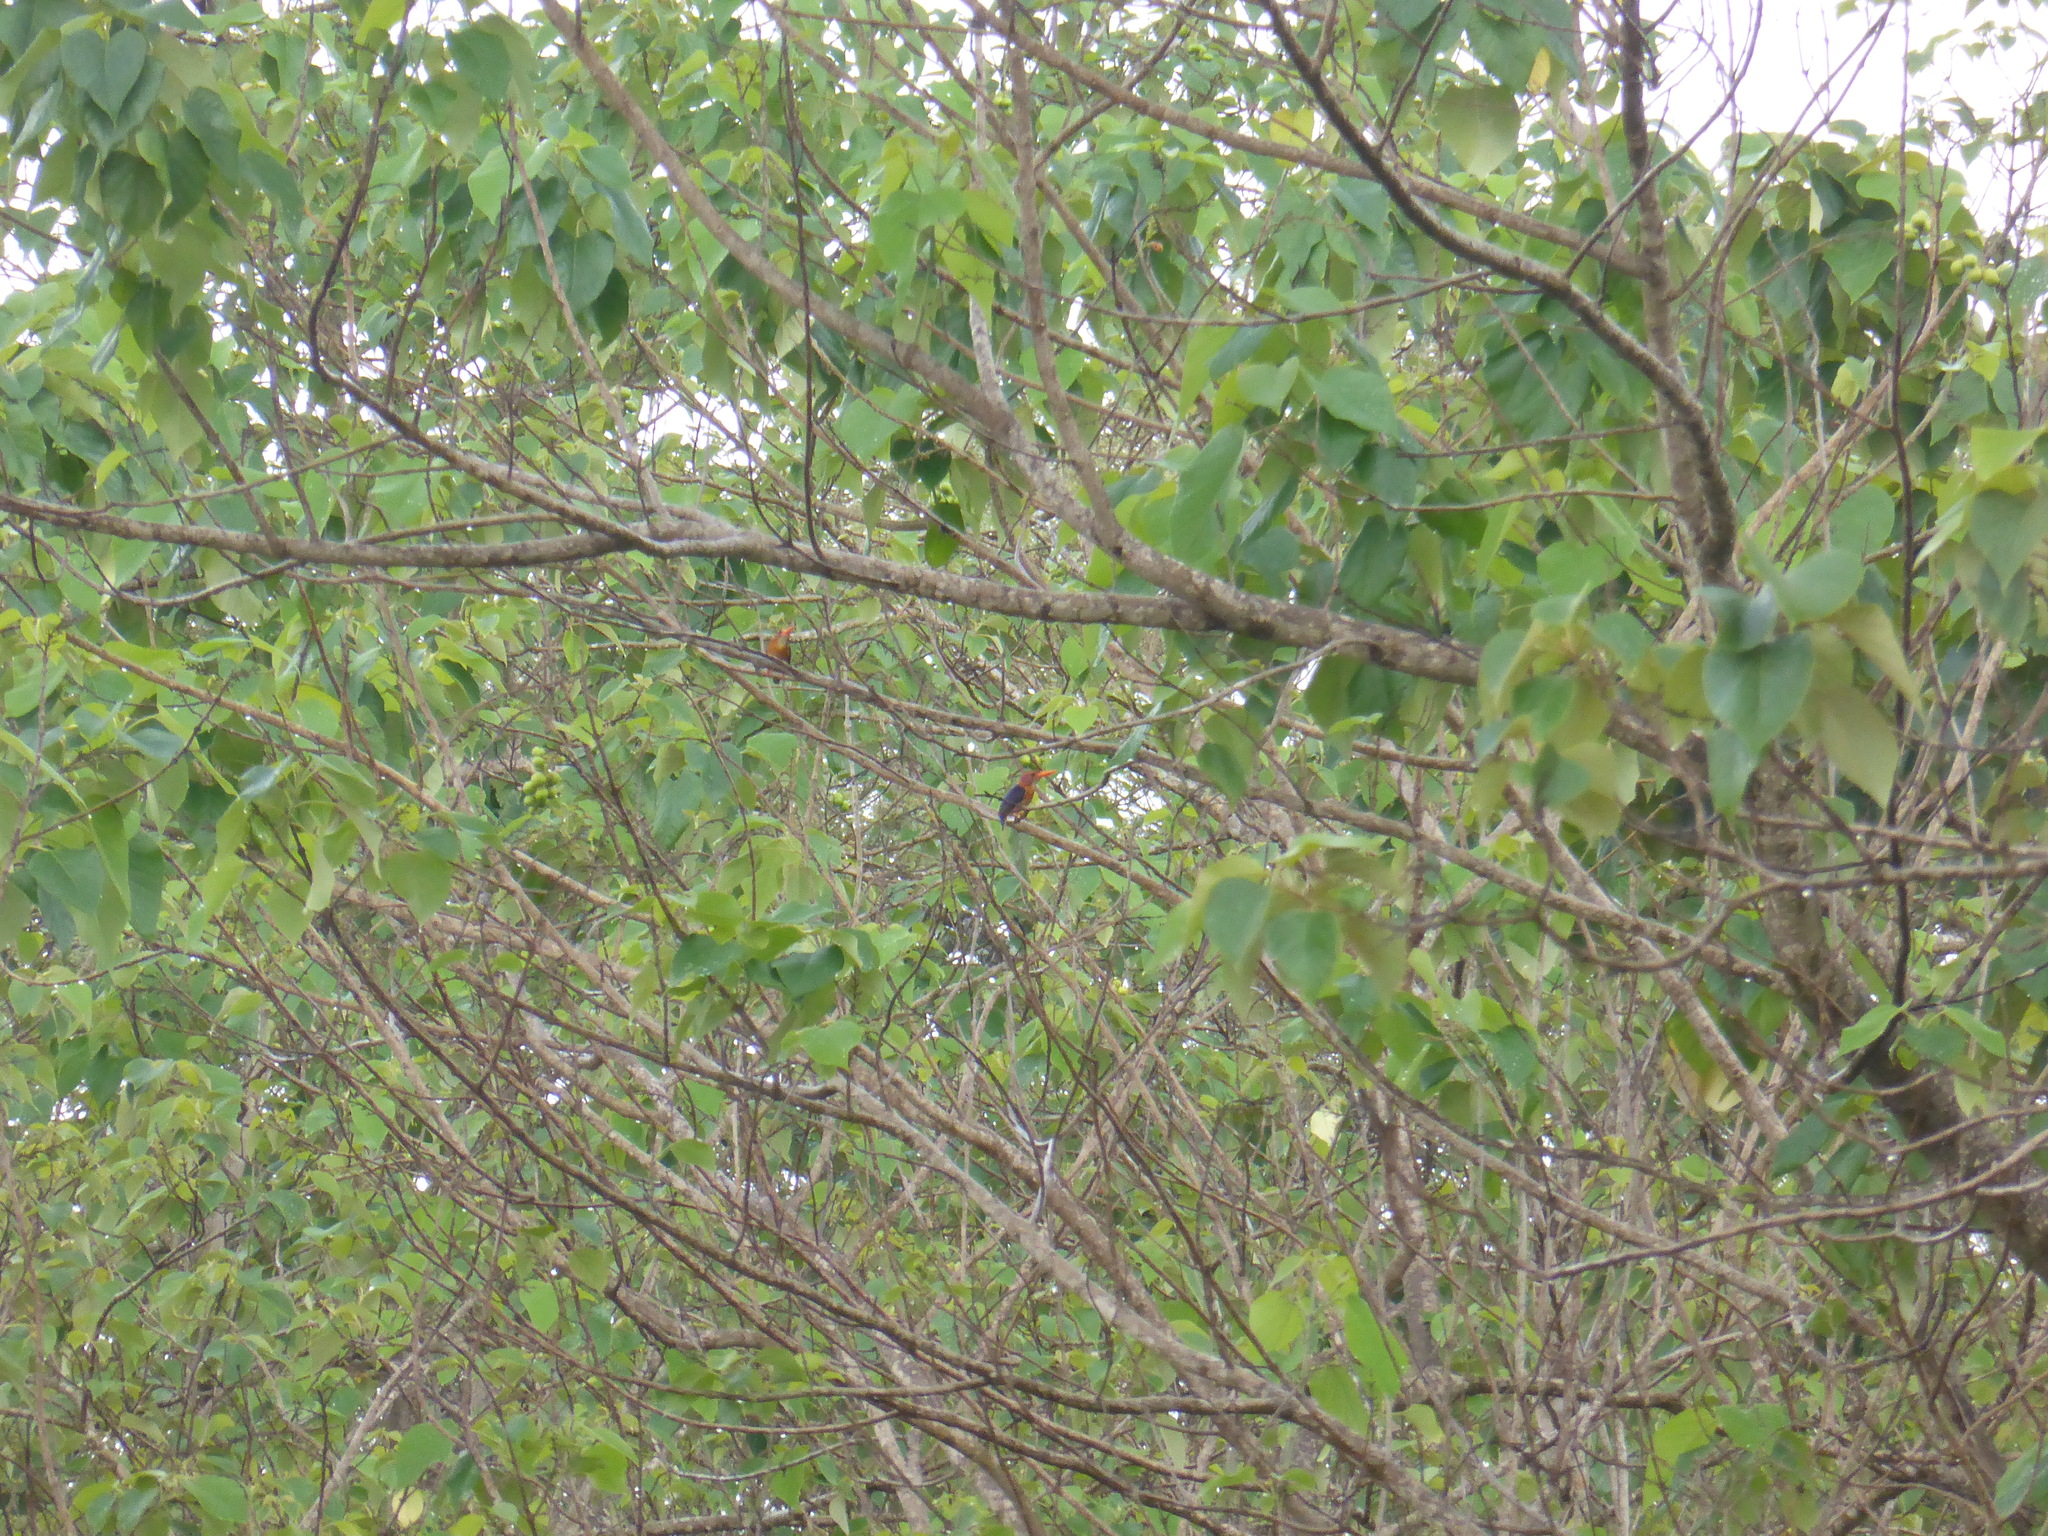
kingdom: Animalia
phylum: Chordata
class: Aves
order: Coraciiformes
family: Alcedinidae
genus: Ispidina
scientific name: Ispidina picta
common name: African pygmy-kingfisher
